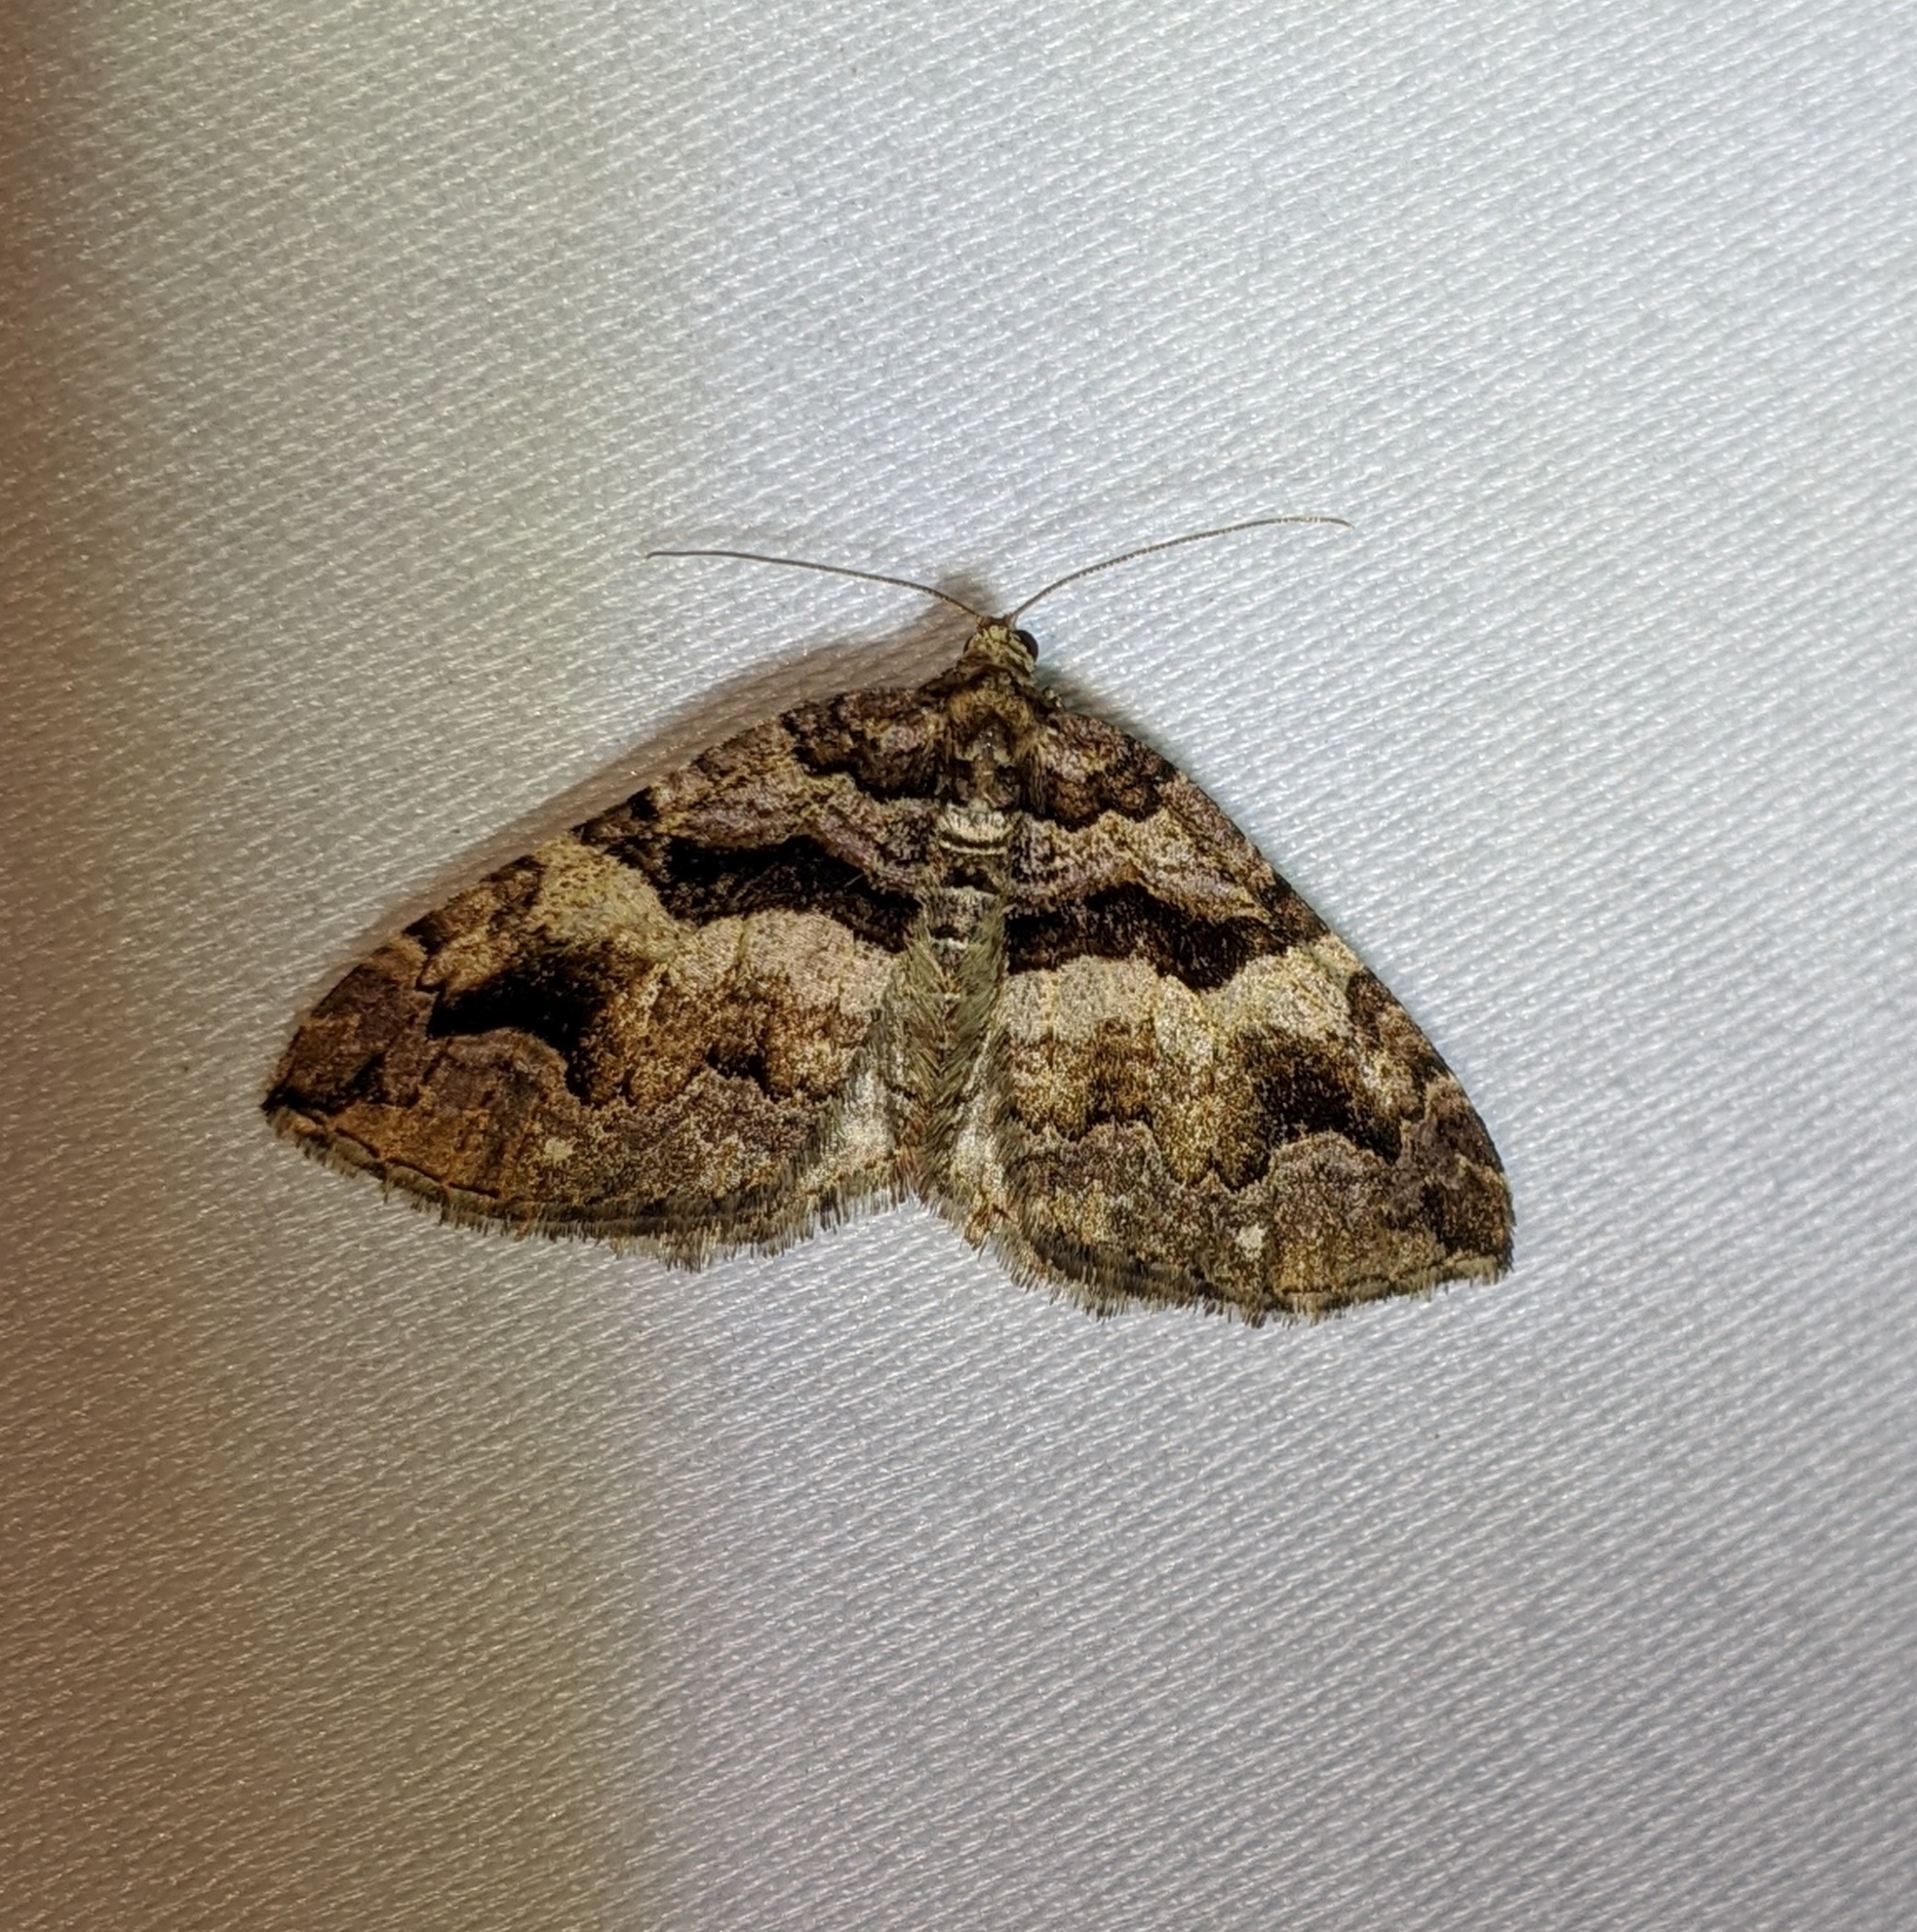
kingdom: Animalia
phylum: Arthropoda
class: Insecta
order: Lepidoptera
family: Geometridae
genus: Anticlea
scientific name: Anticlea vasiliata
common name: Variable carpet
